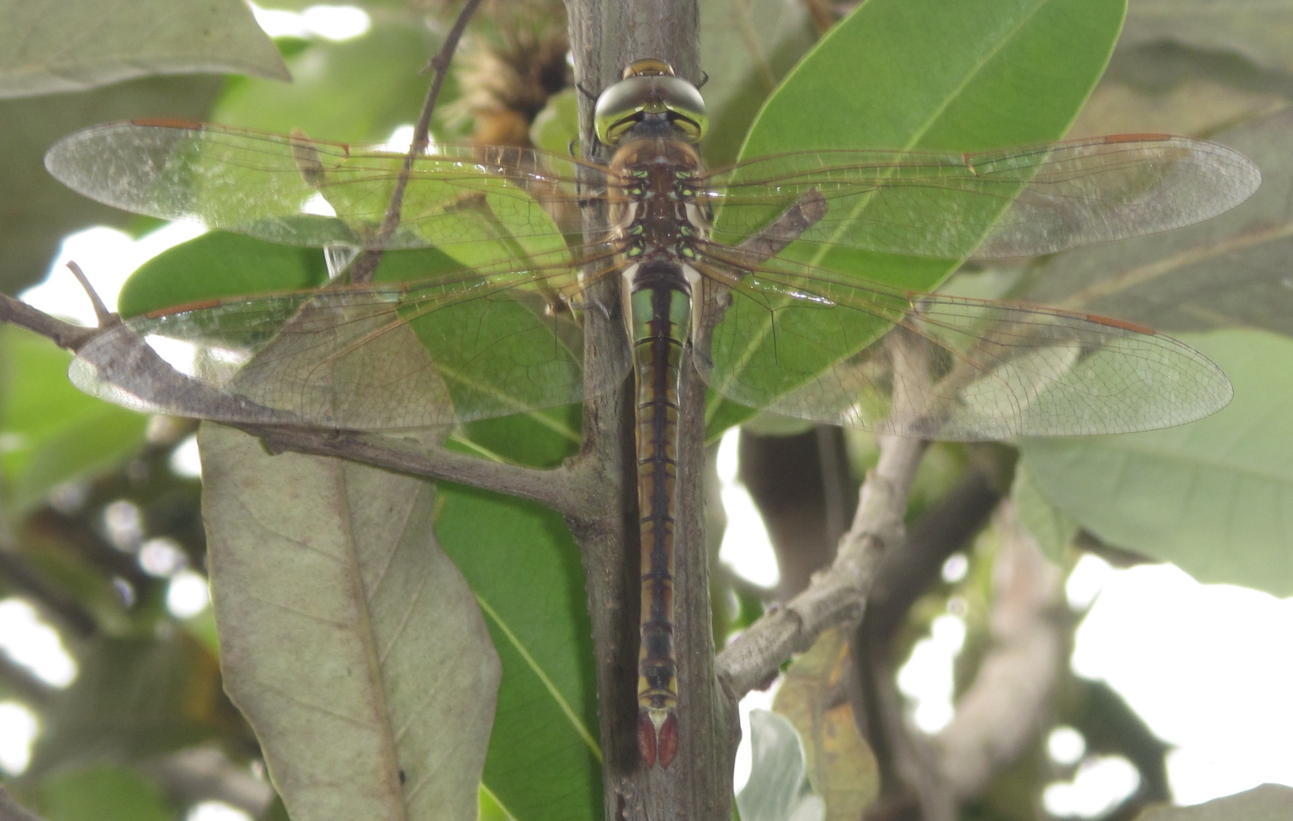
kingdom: Animalia
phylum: Arthropoda
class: Insecta
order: Odonata
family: Aeshnidae
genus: Anax
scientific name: Anax ephippiger
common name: Vagrant emperor
